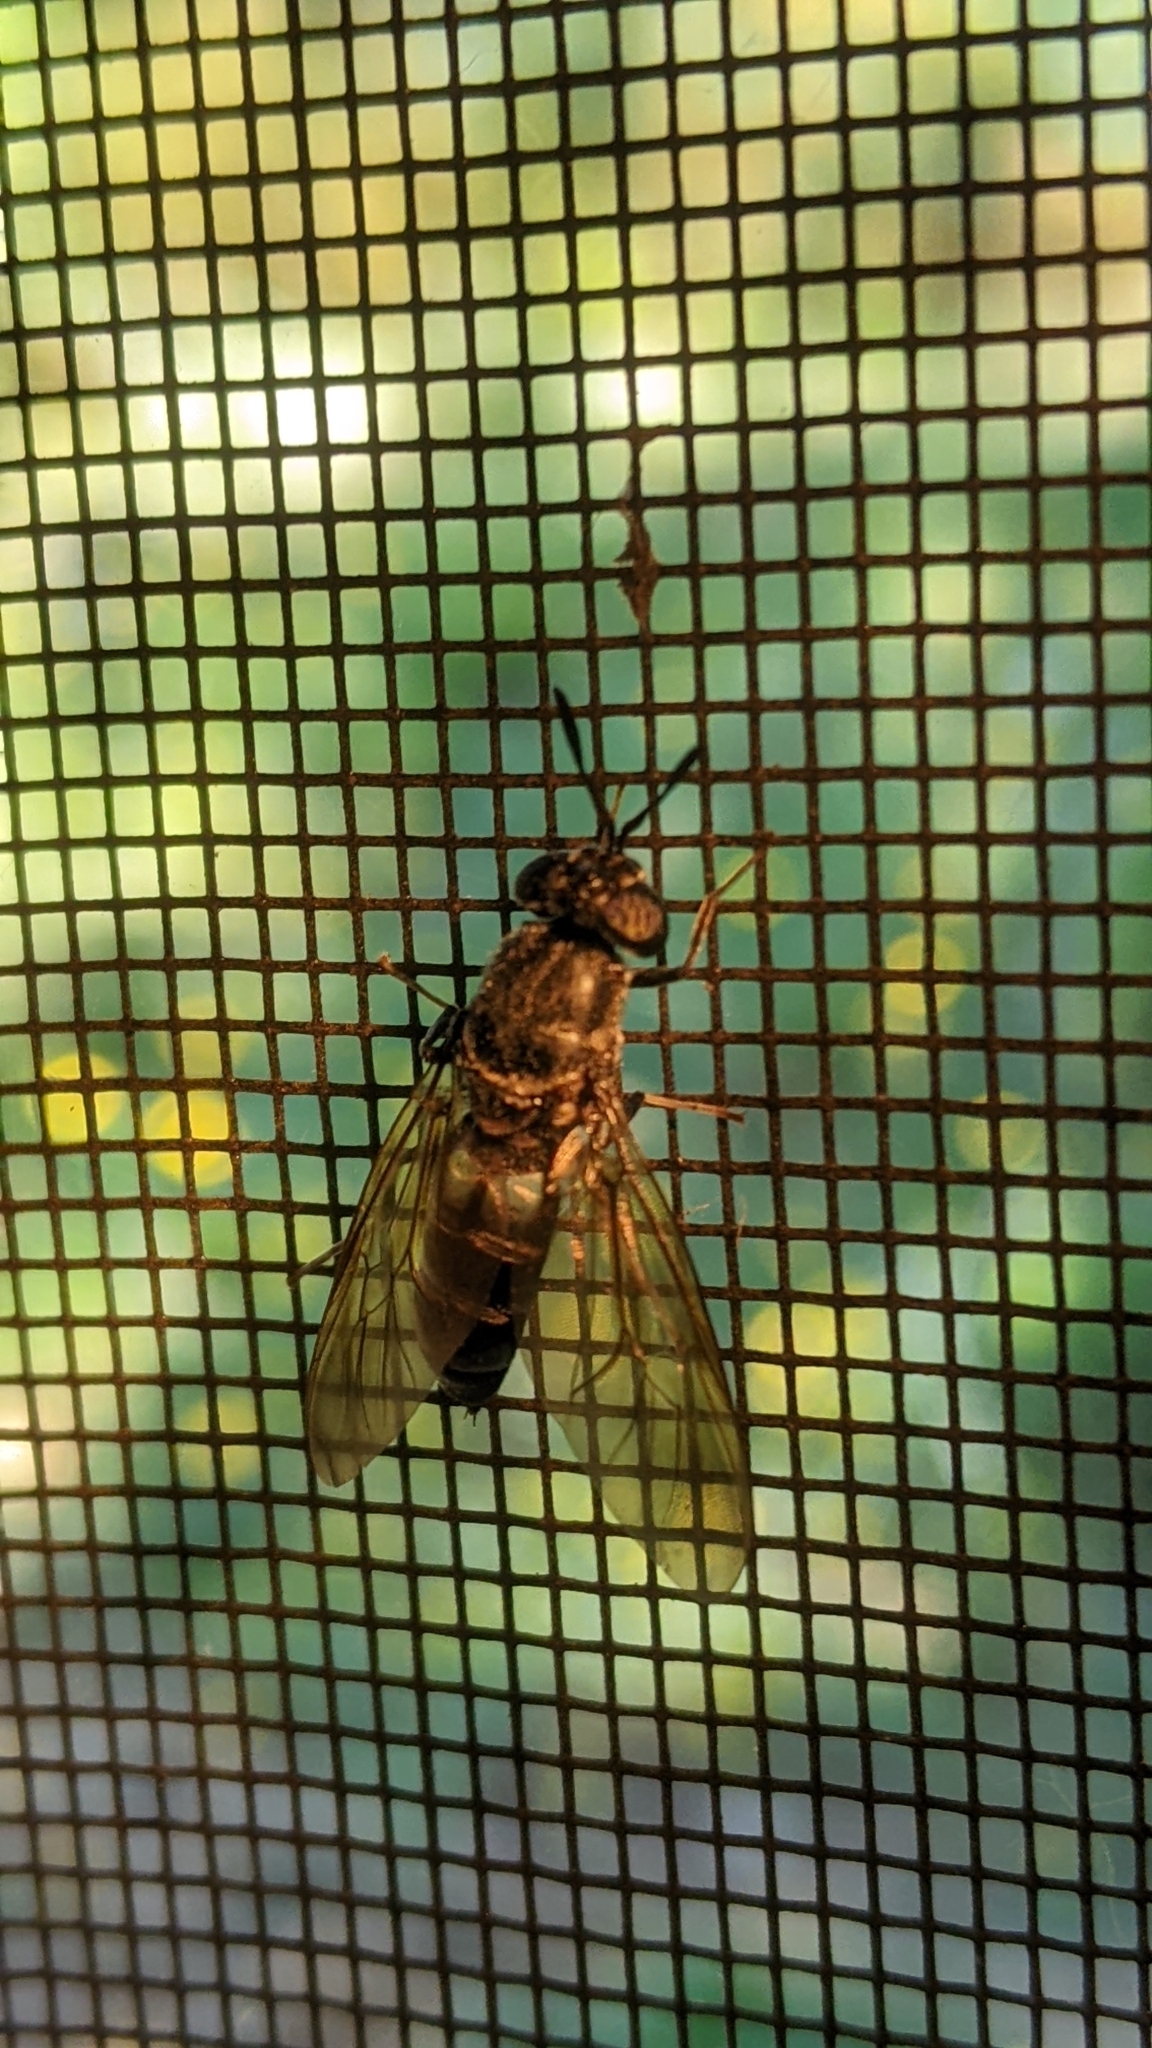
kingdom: Animalia
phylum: Arthropoda
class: Insecta
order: Diptera
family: Stratiomyidae
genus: Hermetia
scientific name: Hermetia illucens
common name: Black soldier fly
